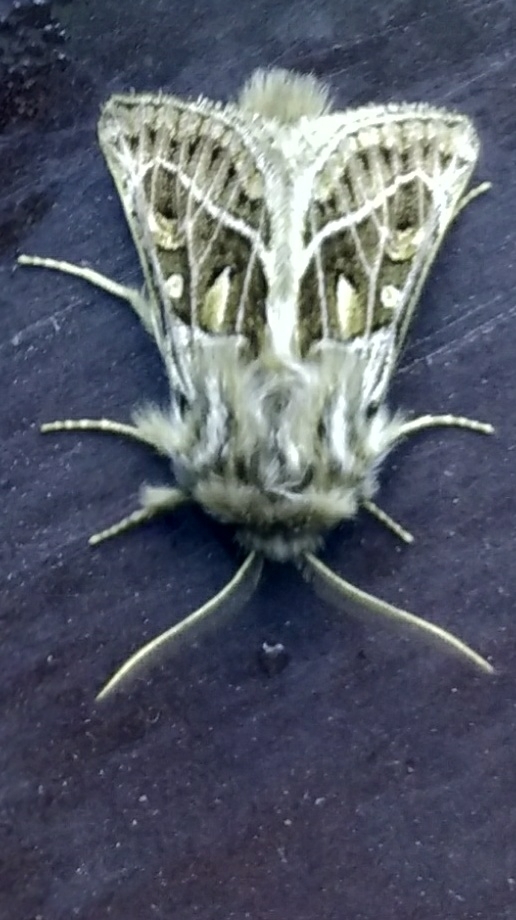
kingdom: Animalia
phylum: Arthropoda
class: Insecta
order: Lepidoptera
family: Noctuidae
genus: Ulochlaena
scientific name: Ulochlaena hirta
